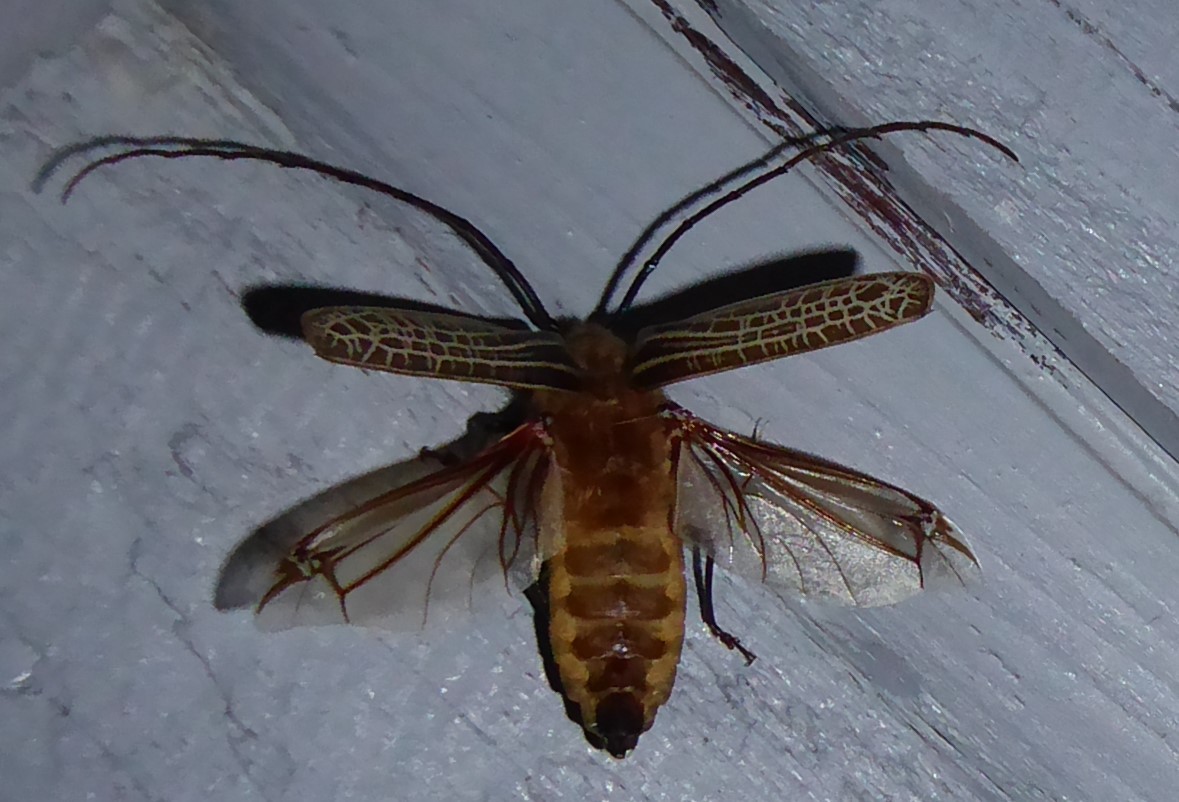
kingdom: Animalia
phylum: Arthropoda
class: Insecta
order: Coleoptera
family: Cerambycidae
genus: Prionoplus
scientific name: Prionoplus reticularis
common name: Huhu beetle
